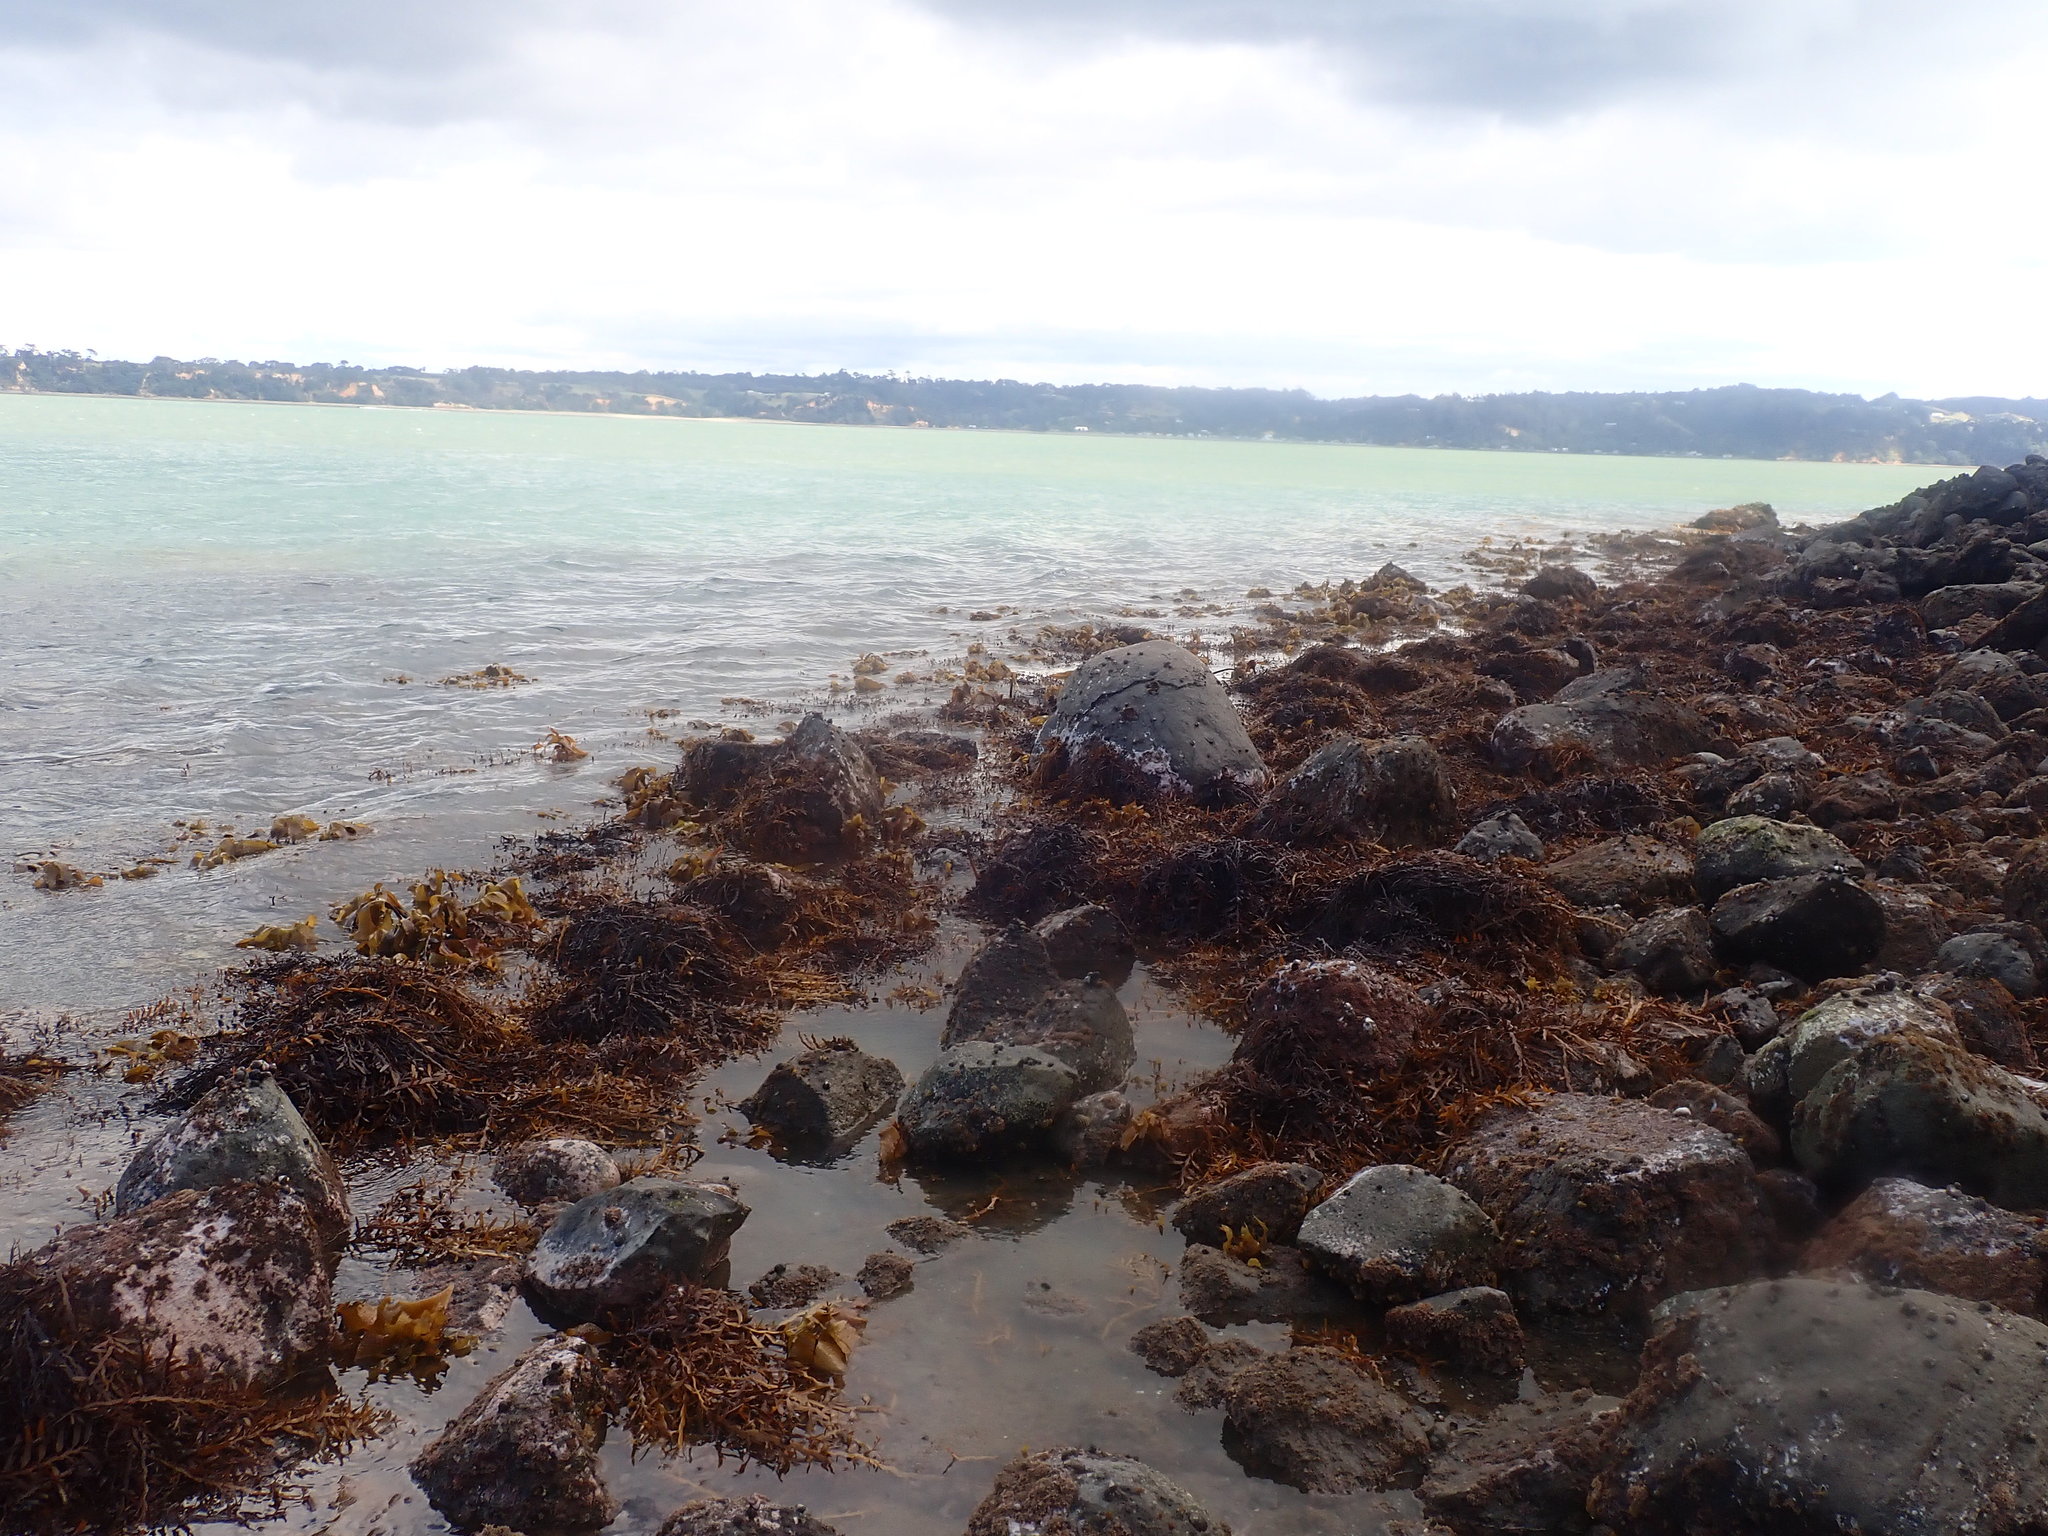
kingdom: Chromista
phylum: Ochrophyta
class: Phaeophyceae
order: Fucales
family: Sargassaceae
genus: Carpophyllum
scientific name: Carpophyllum maschalocarpum
